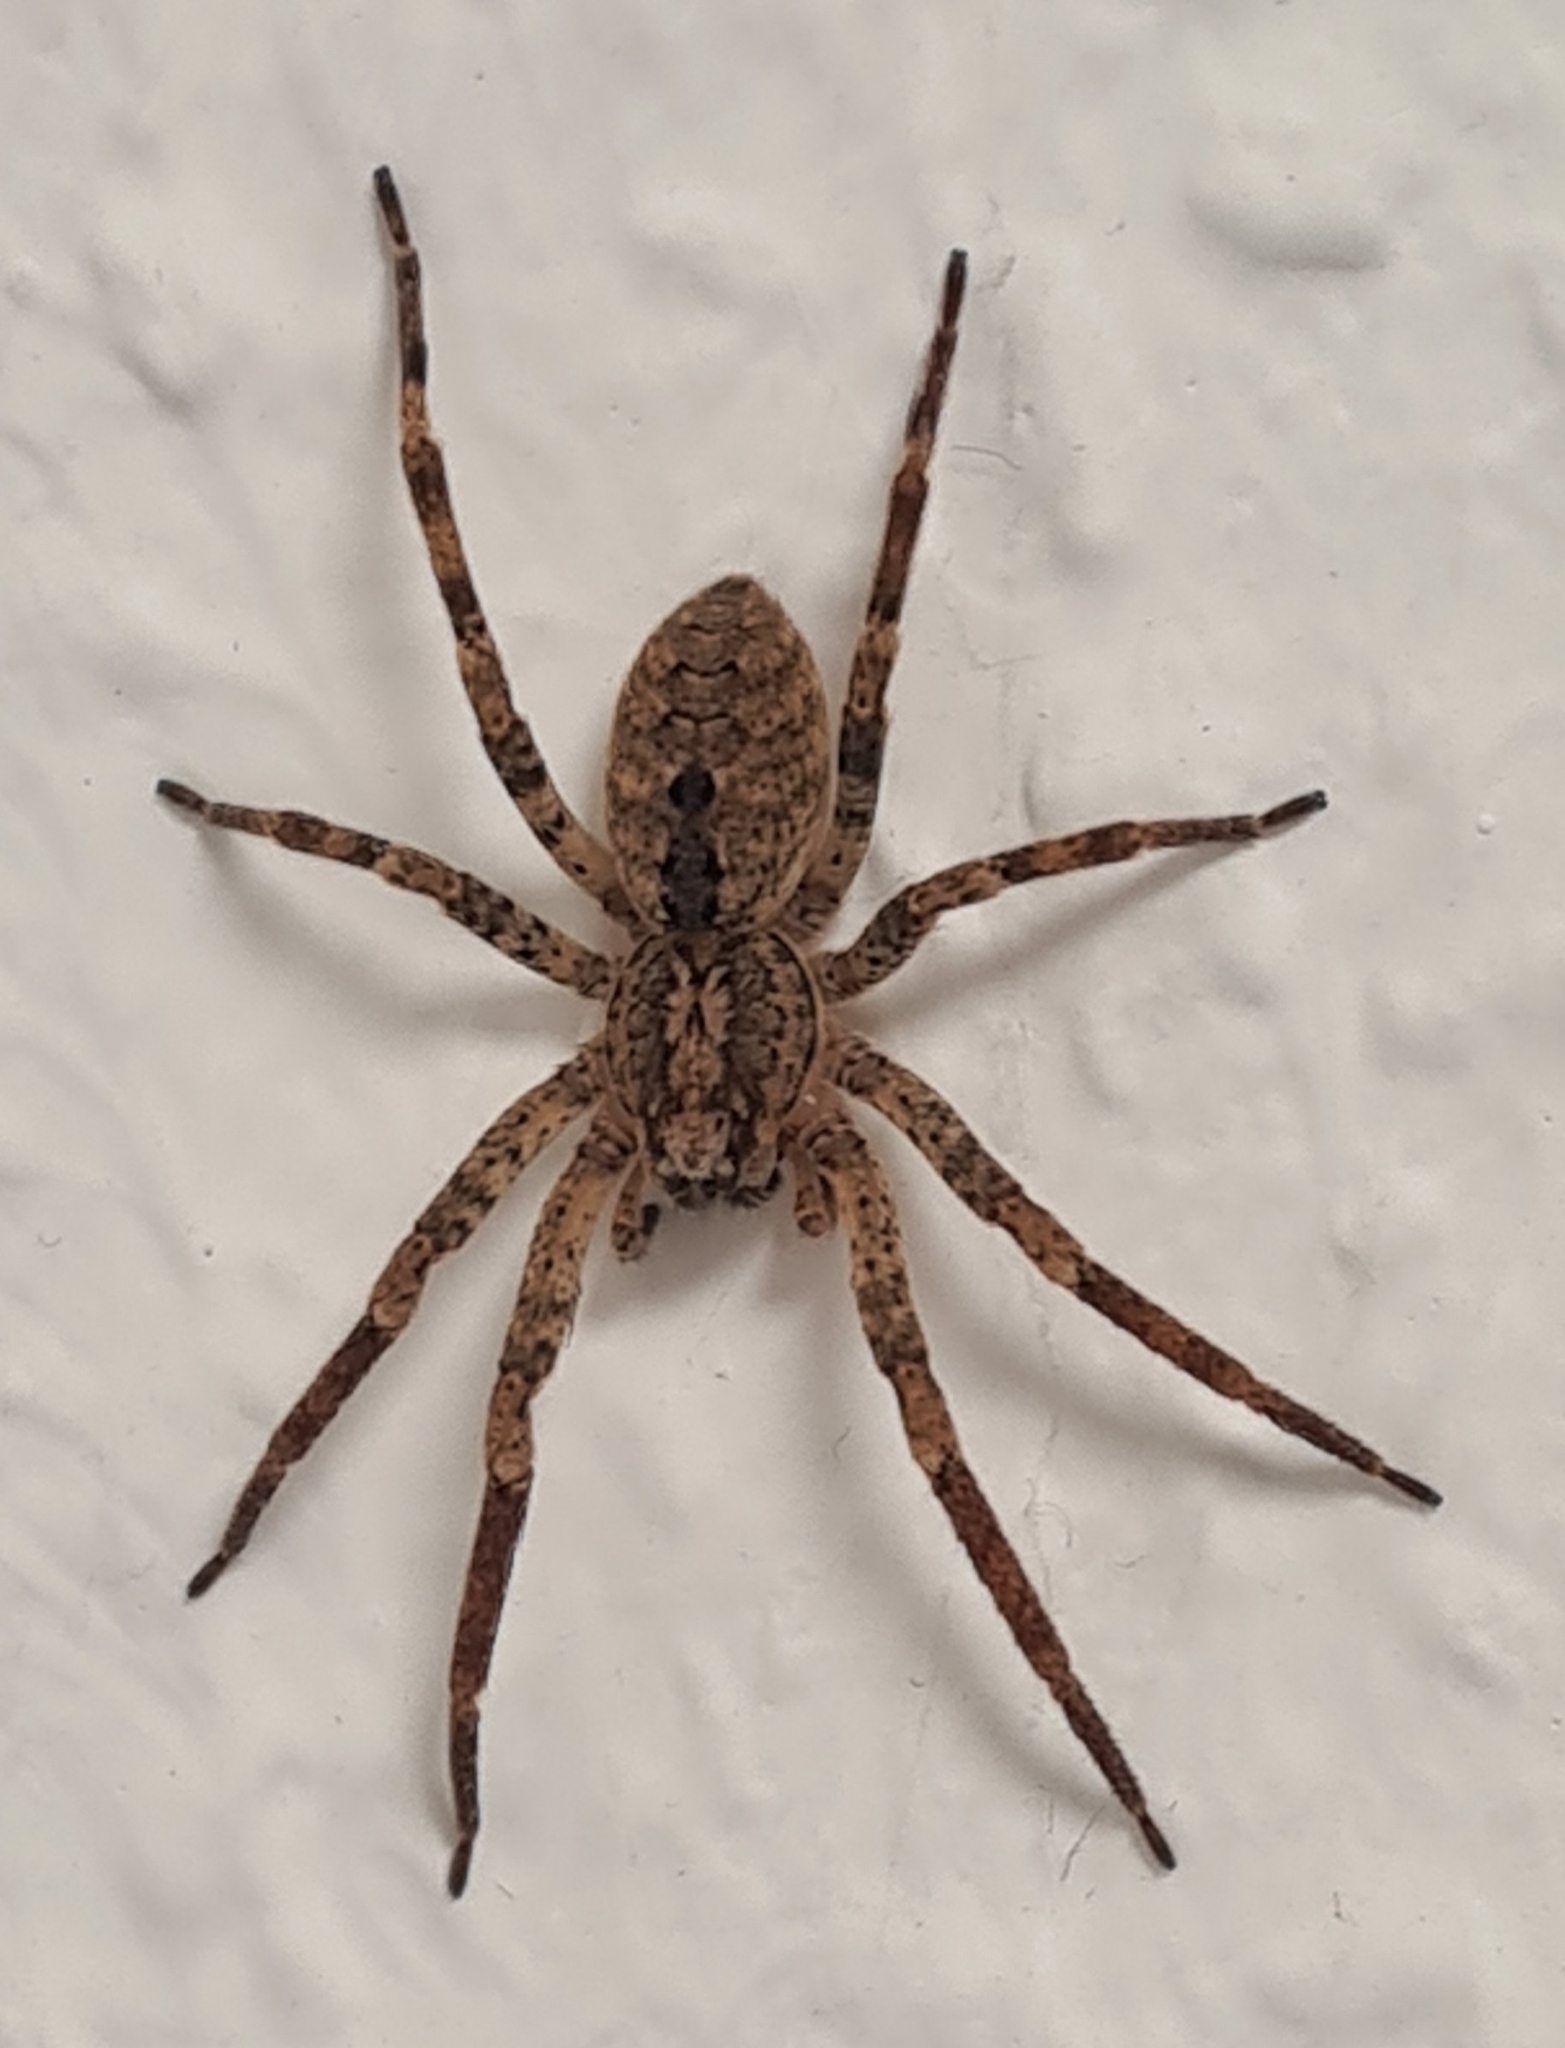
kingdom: Animalia
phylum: Arthropoda
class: Arachnida
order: Araneae
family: Zoropsidae
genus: Zoropsis
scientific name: Zoropsis spinimana
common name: Zoropsid spider
